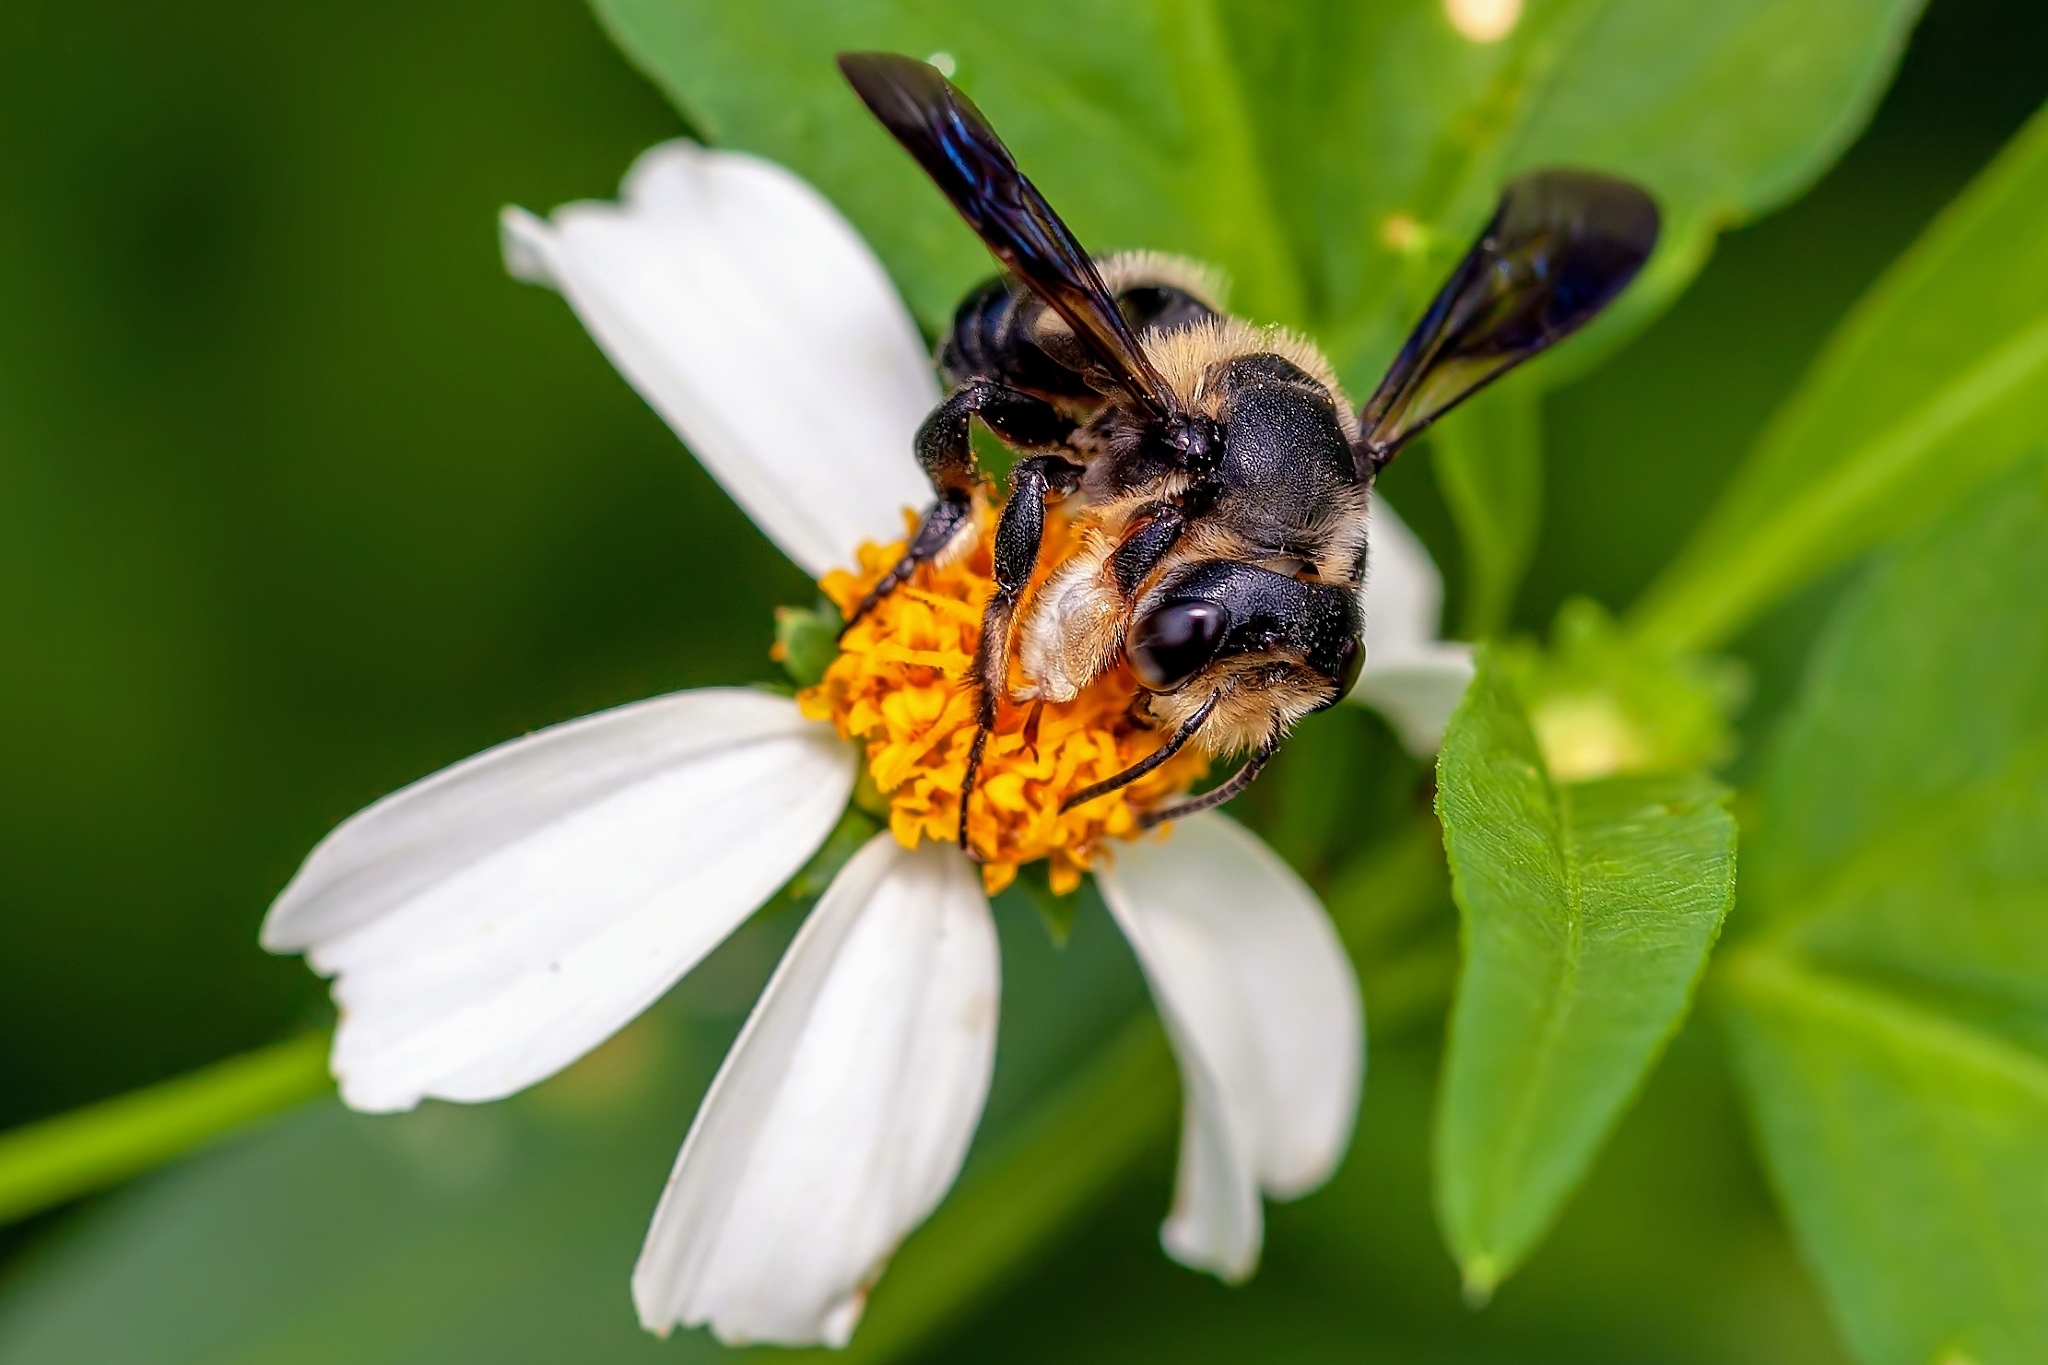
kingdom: Animalia
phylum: Arthropoda
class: Insecta
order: Hymenoptera
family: Megachilidae
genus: Megachile
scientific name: Megachile xylocopoides
